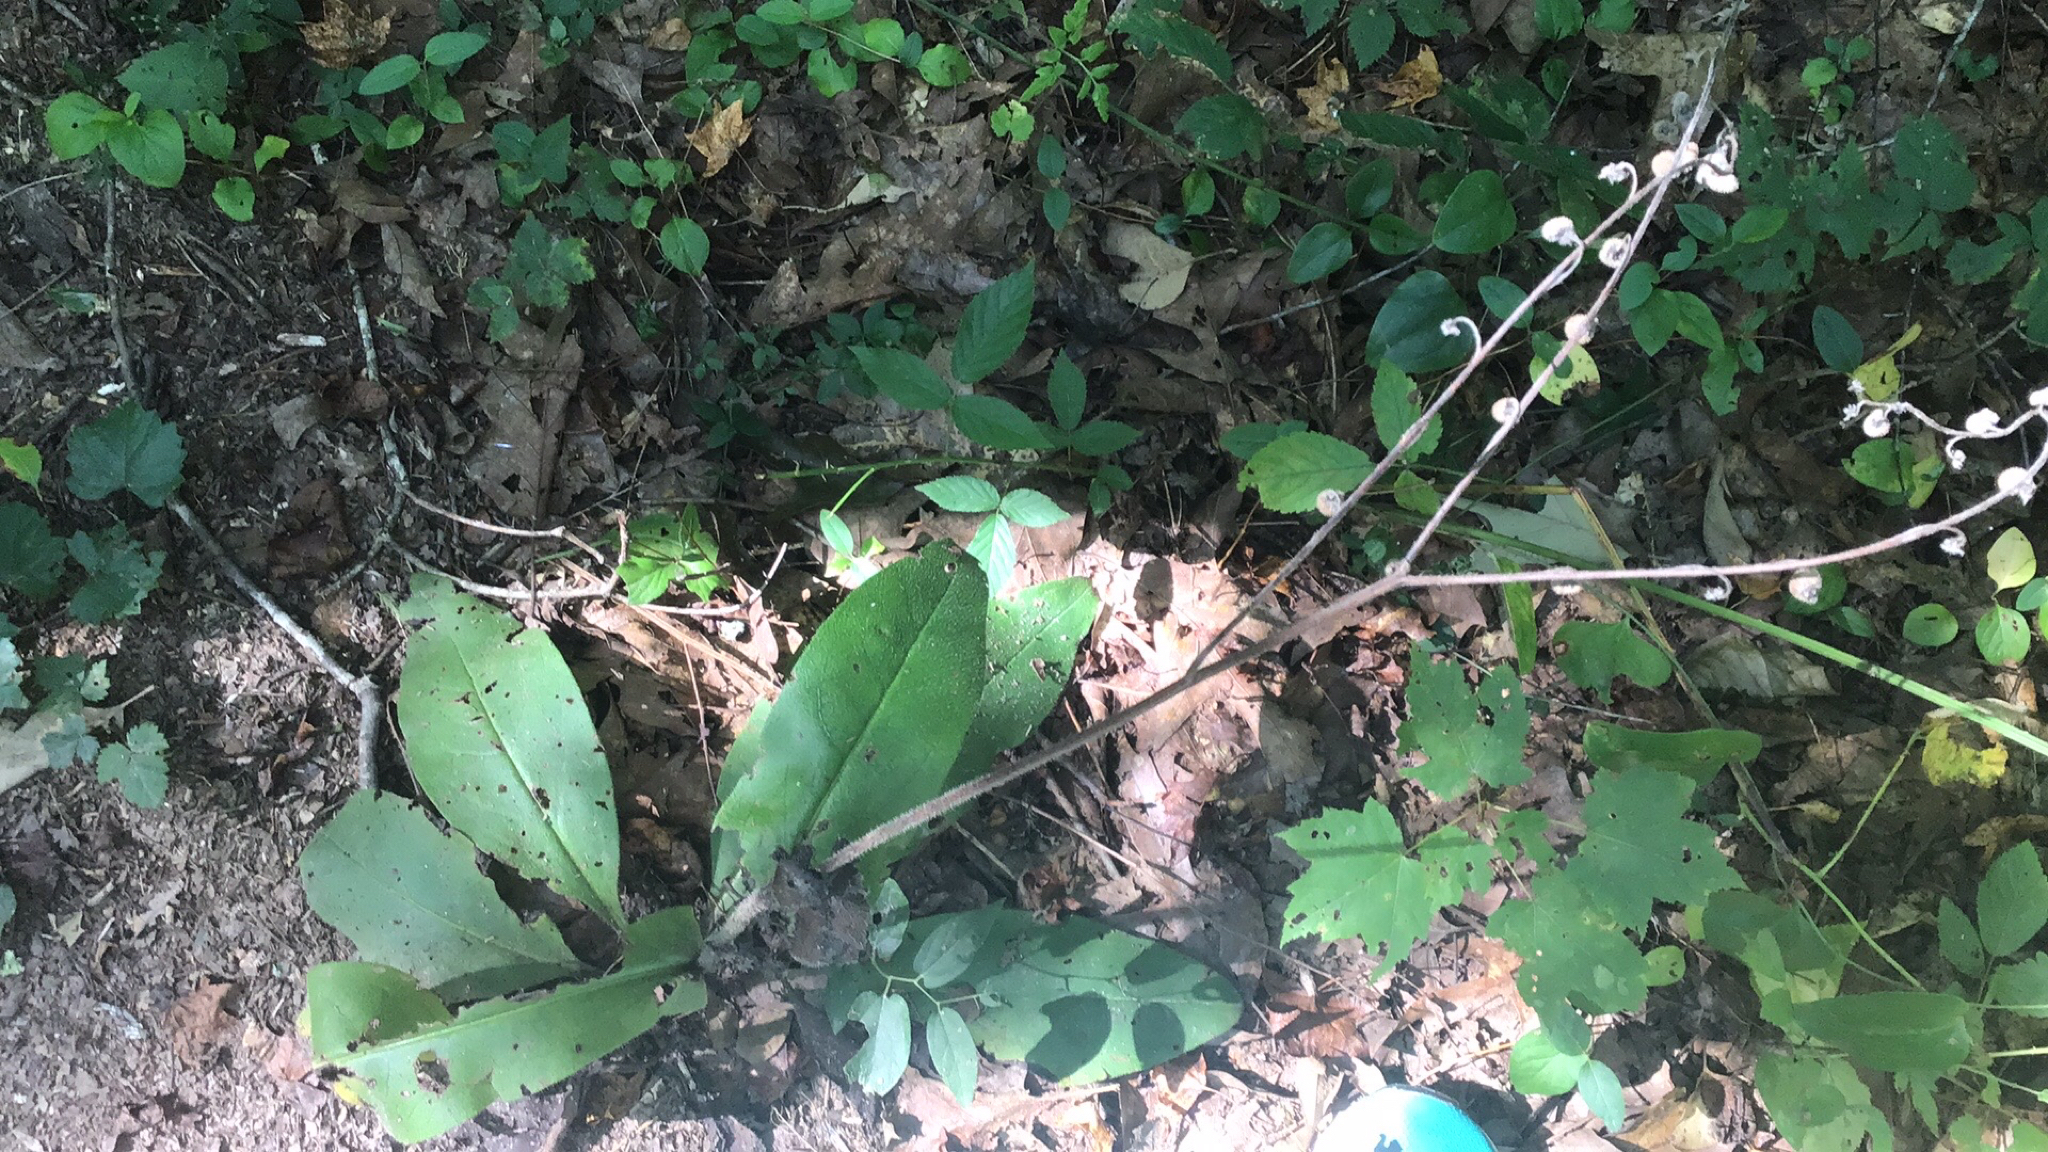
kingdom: Plantae
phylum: Tracheophyta
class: Magnoliopsida
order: Boraginales
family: Boraginaceae
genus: Andersonglossum
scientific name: Andersonglossum virginianum
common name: Wild comfrey
